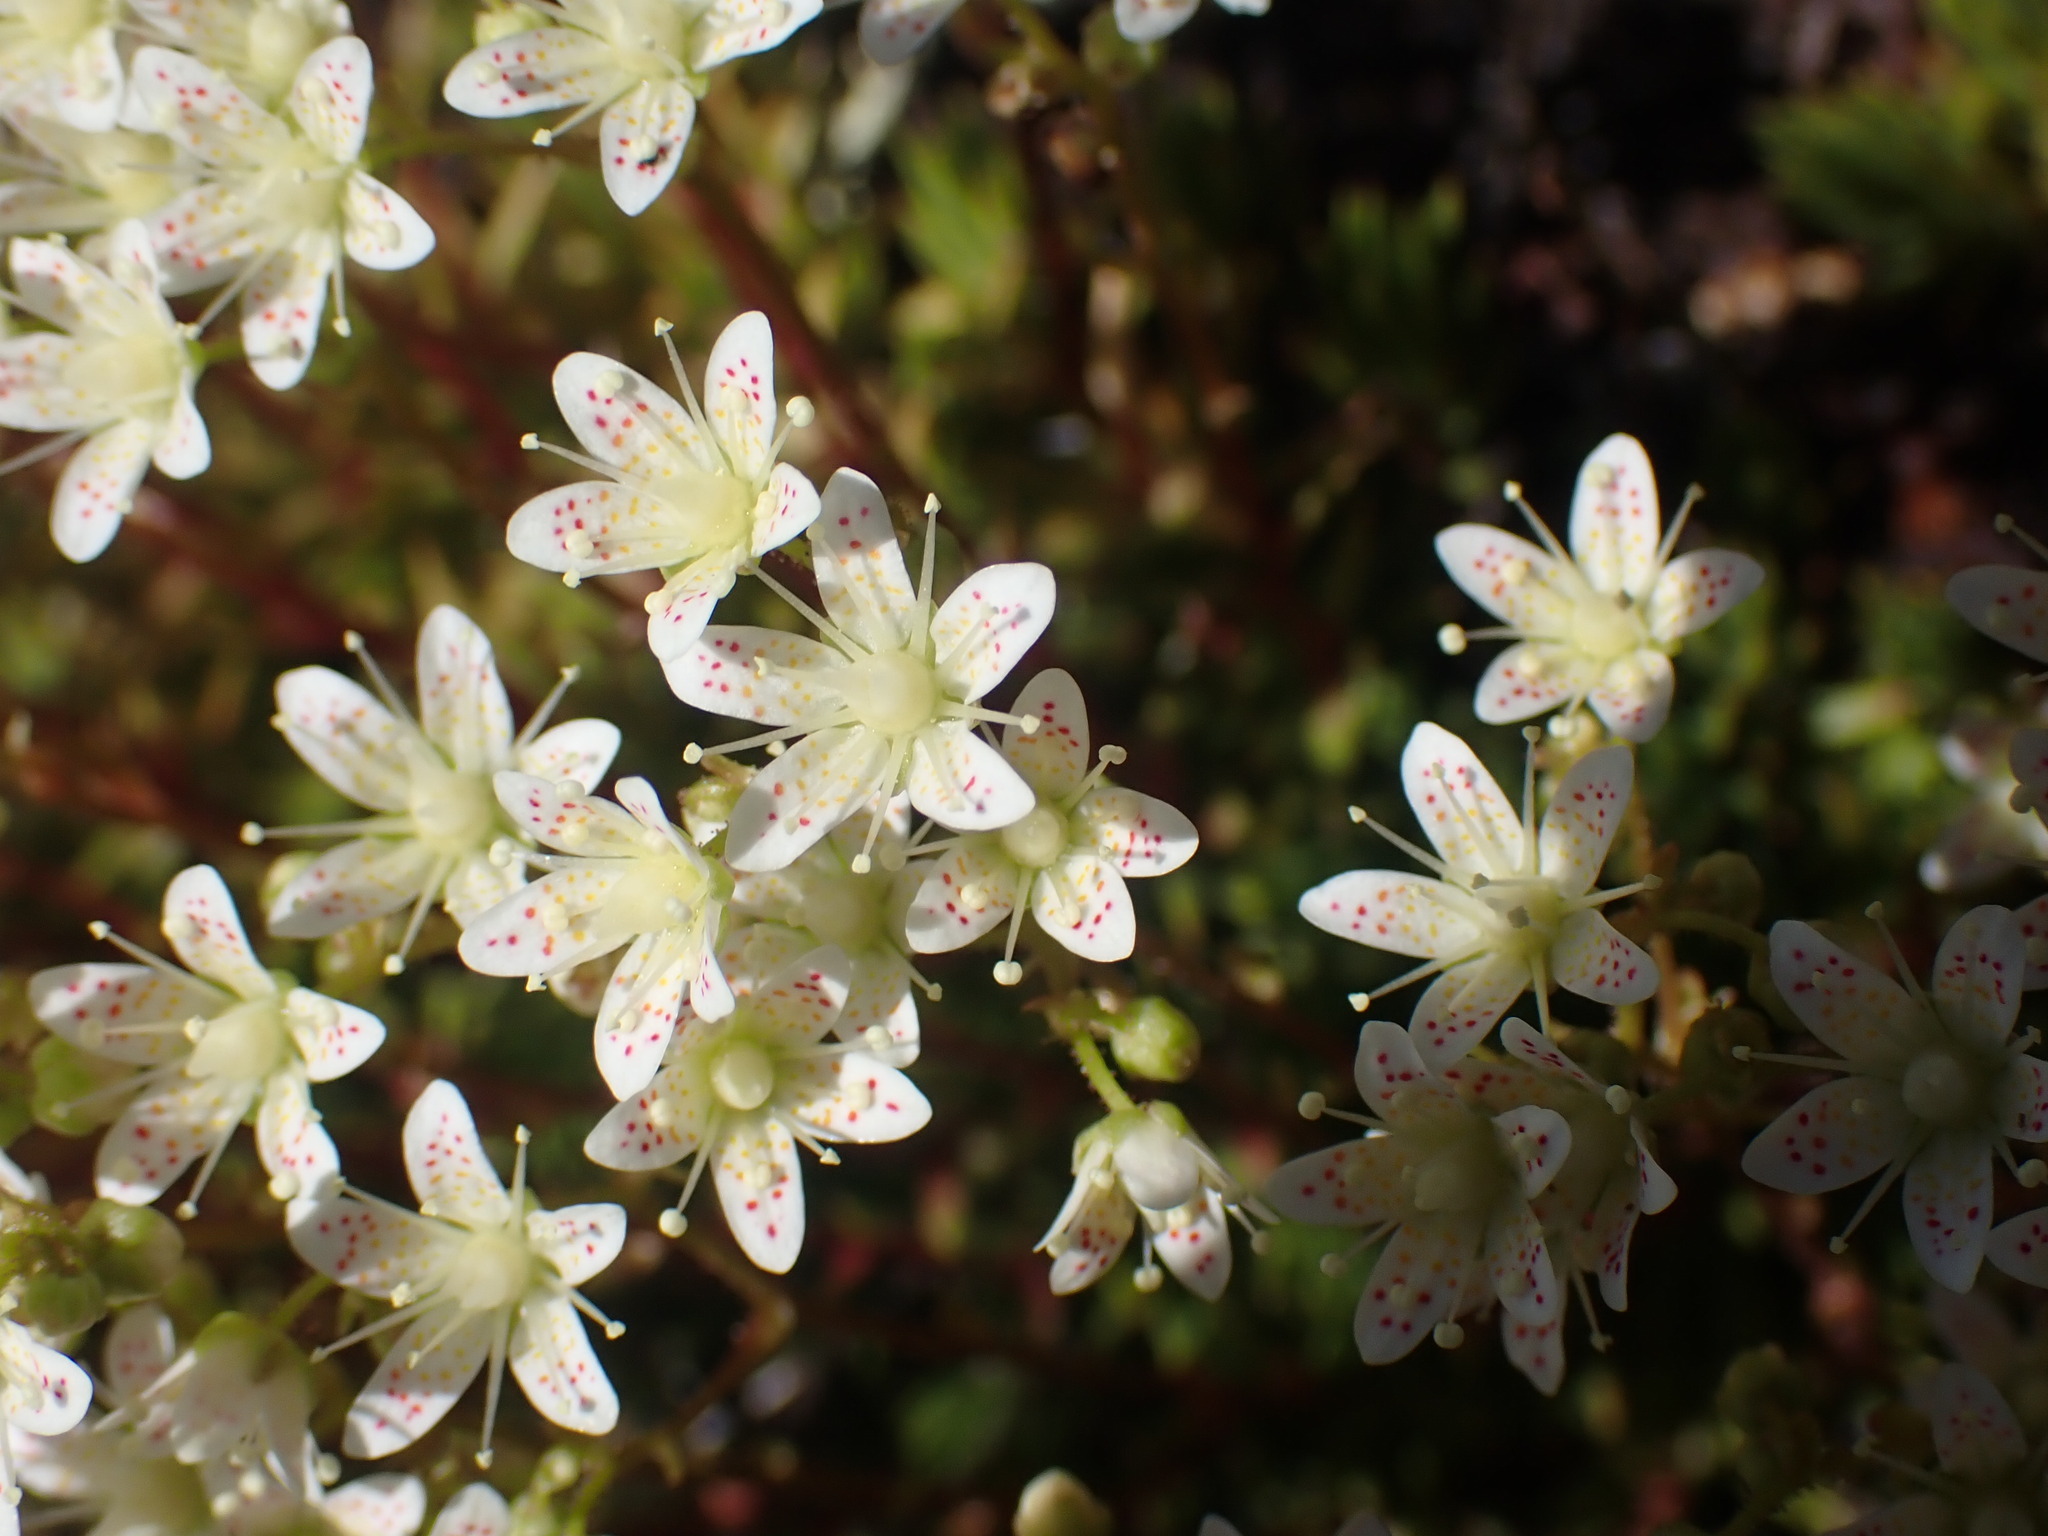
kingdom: Plantae
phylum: Tracheophyta
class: Magnoliopsida
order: Saxifragales
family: Saxifragaceae
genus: Saxifraga
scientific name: Saxifraga bronchialis
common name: Matted saxifrage
